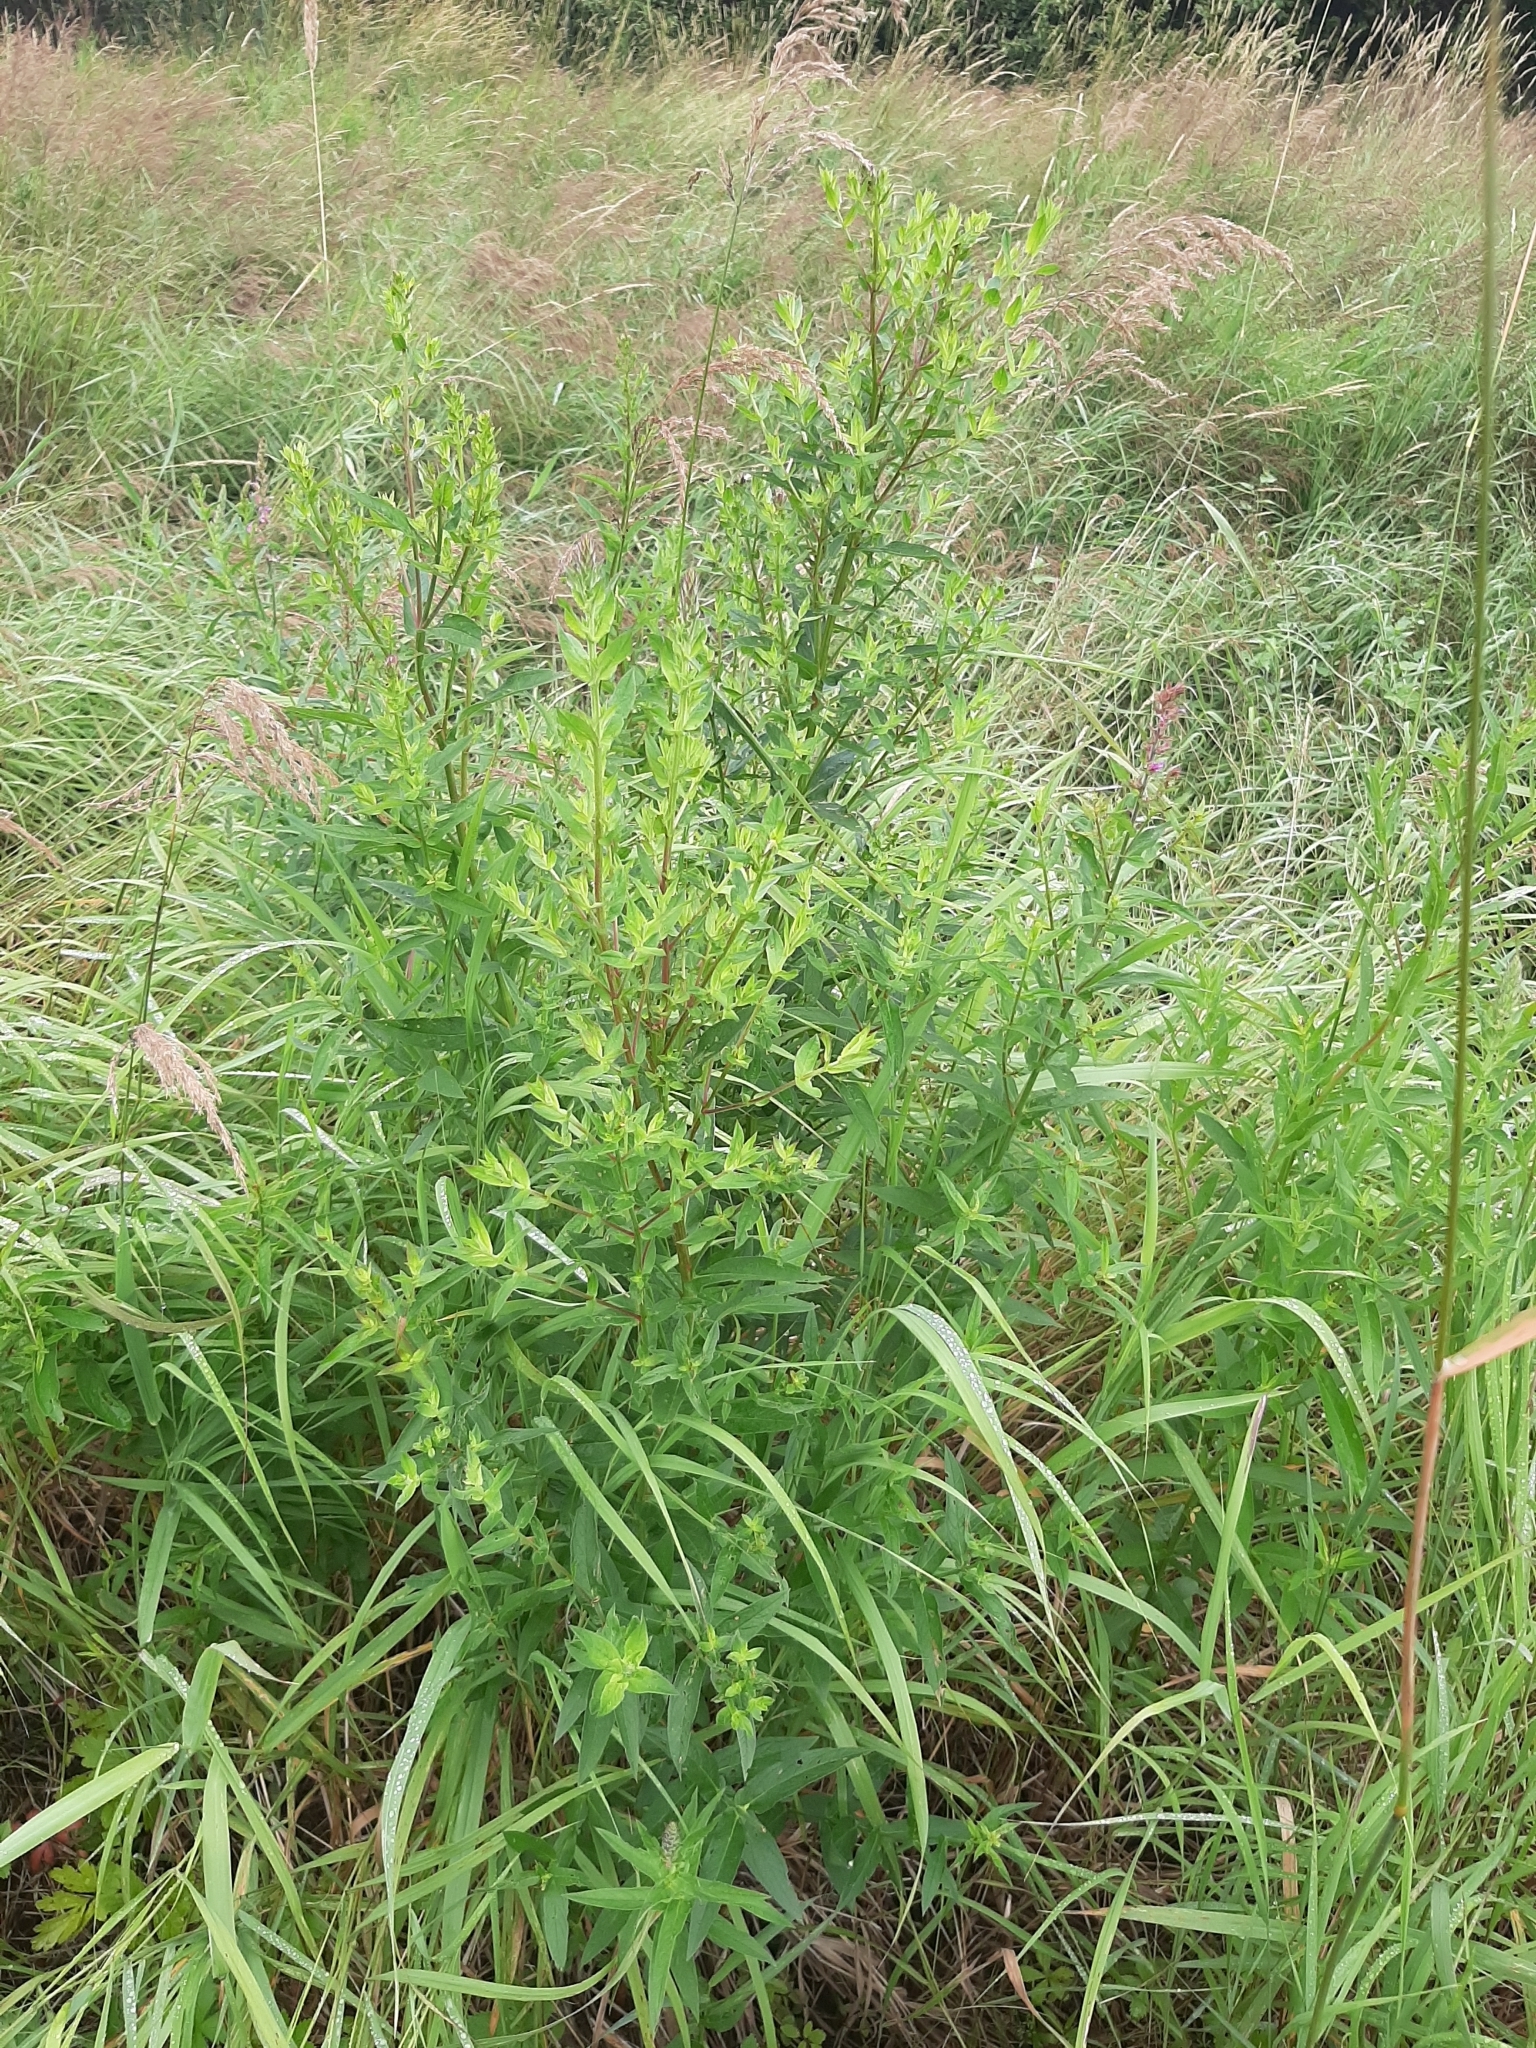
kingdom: Plantae
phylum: Tracheophyta
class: Magnoliopsida
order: Myrtales
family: Lythraceae
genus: Lythrum
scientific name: Lythrum salicaria
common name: Purple loosestrife
